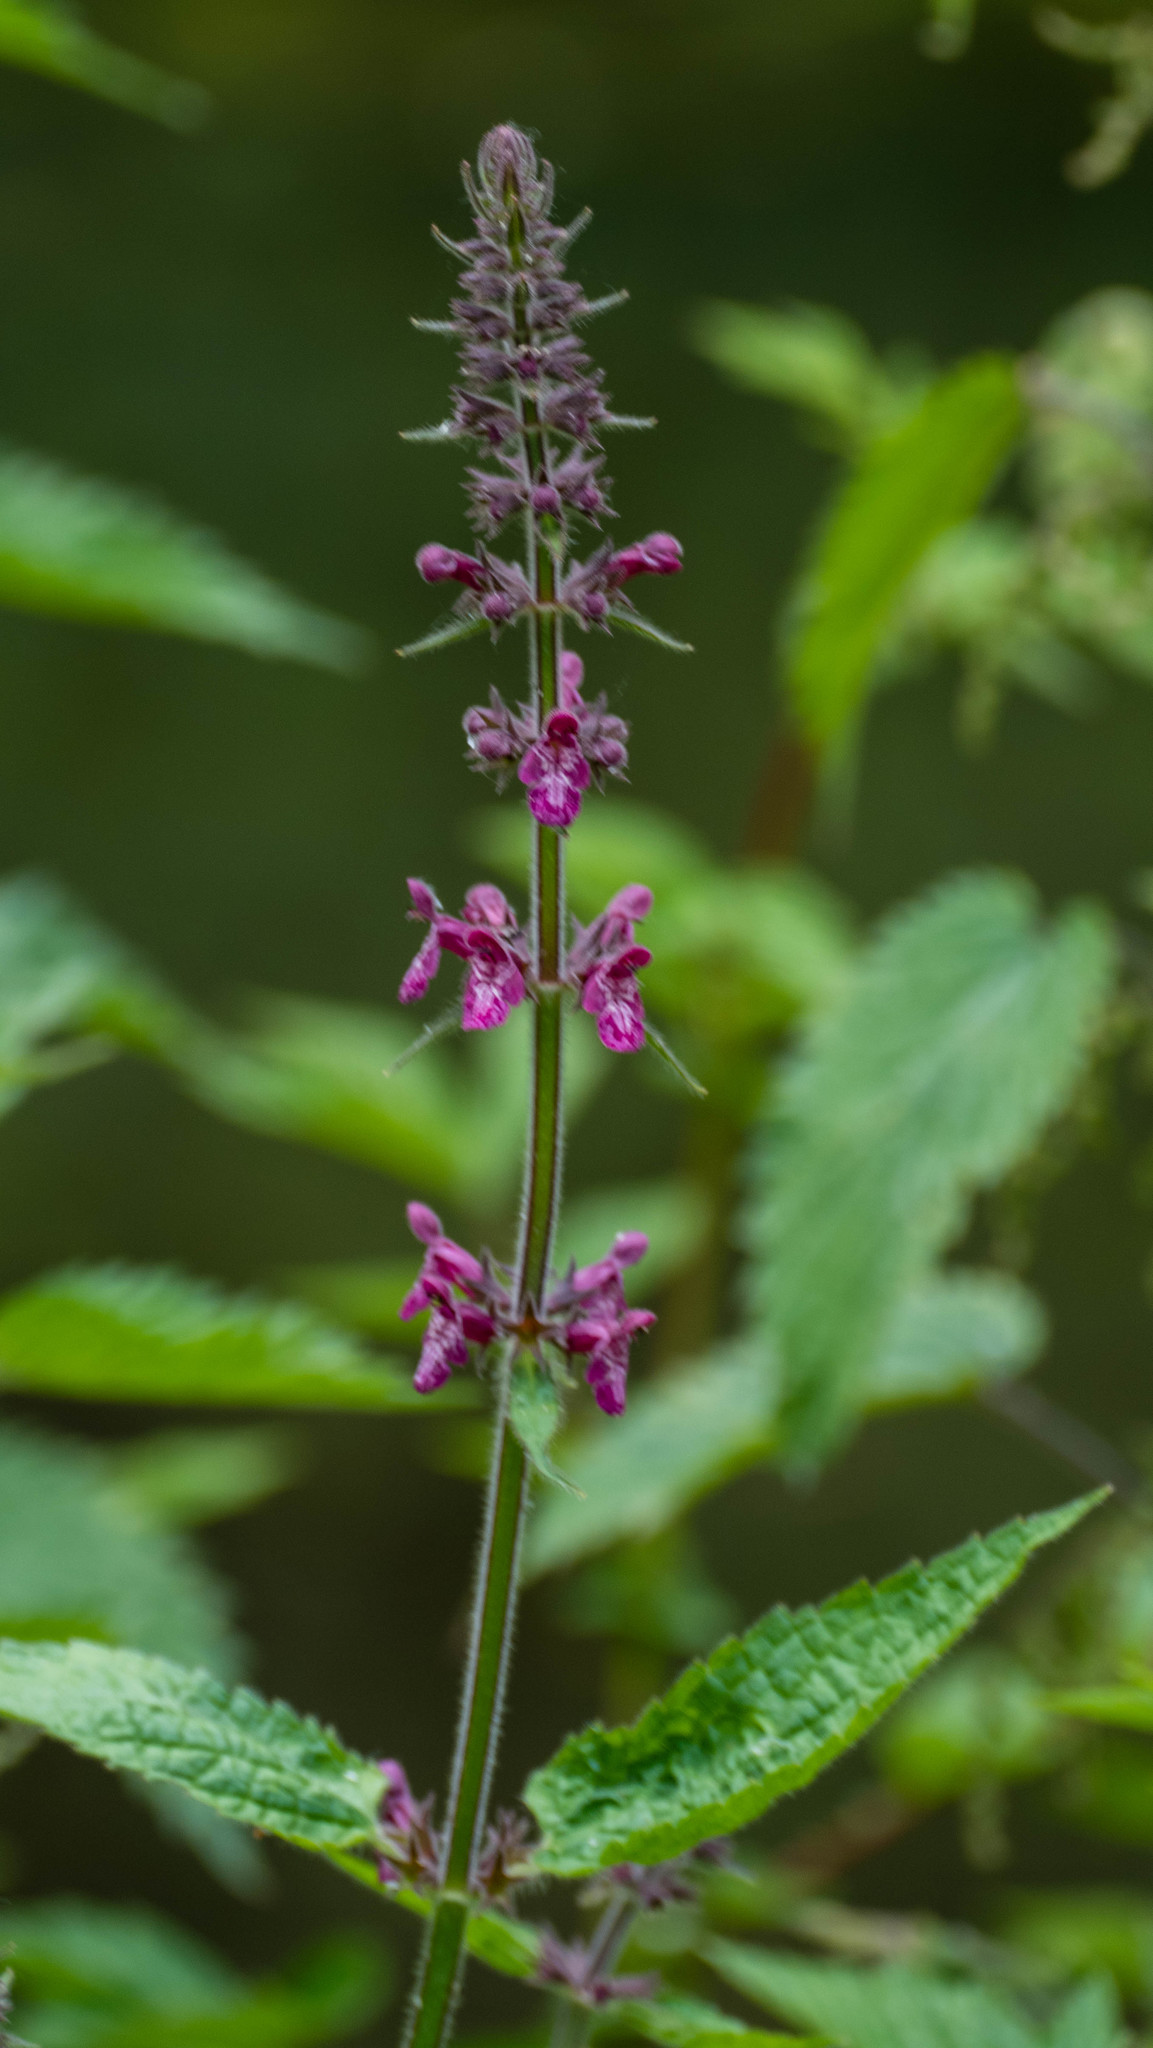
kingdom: Plantae
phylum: Tracheophyta
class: Magnoliopsida
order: Lamiales
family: Lamiaceae
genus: Stachys
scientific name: Stachys sylvatica
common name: Hedge woundwort
